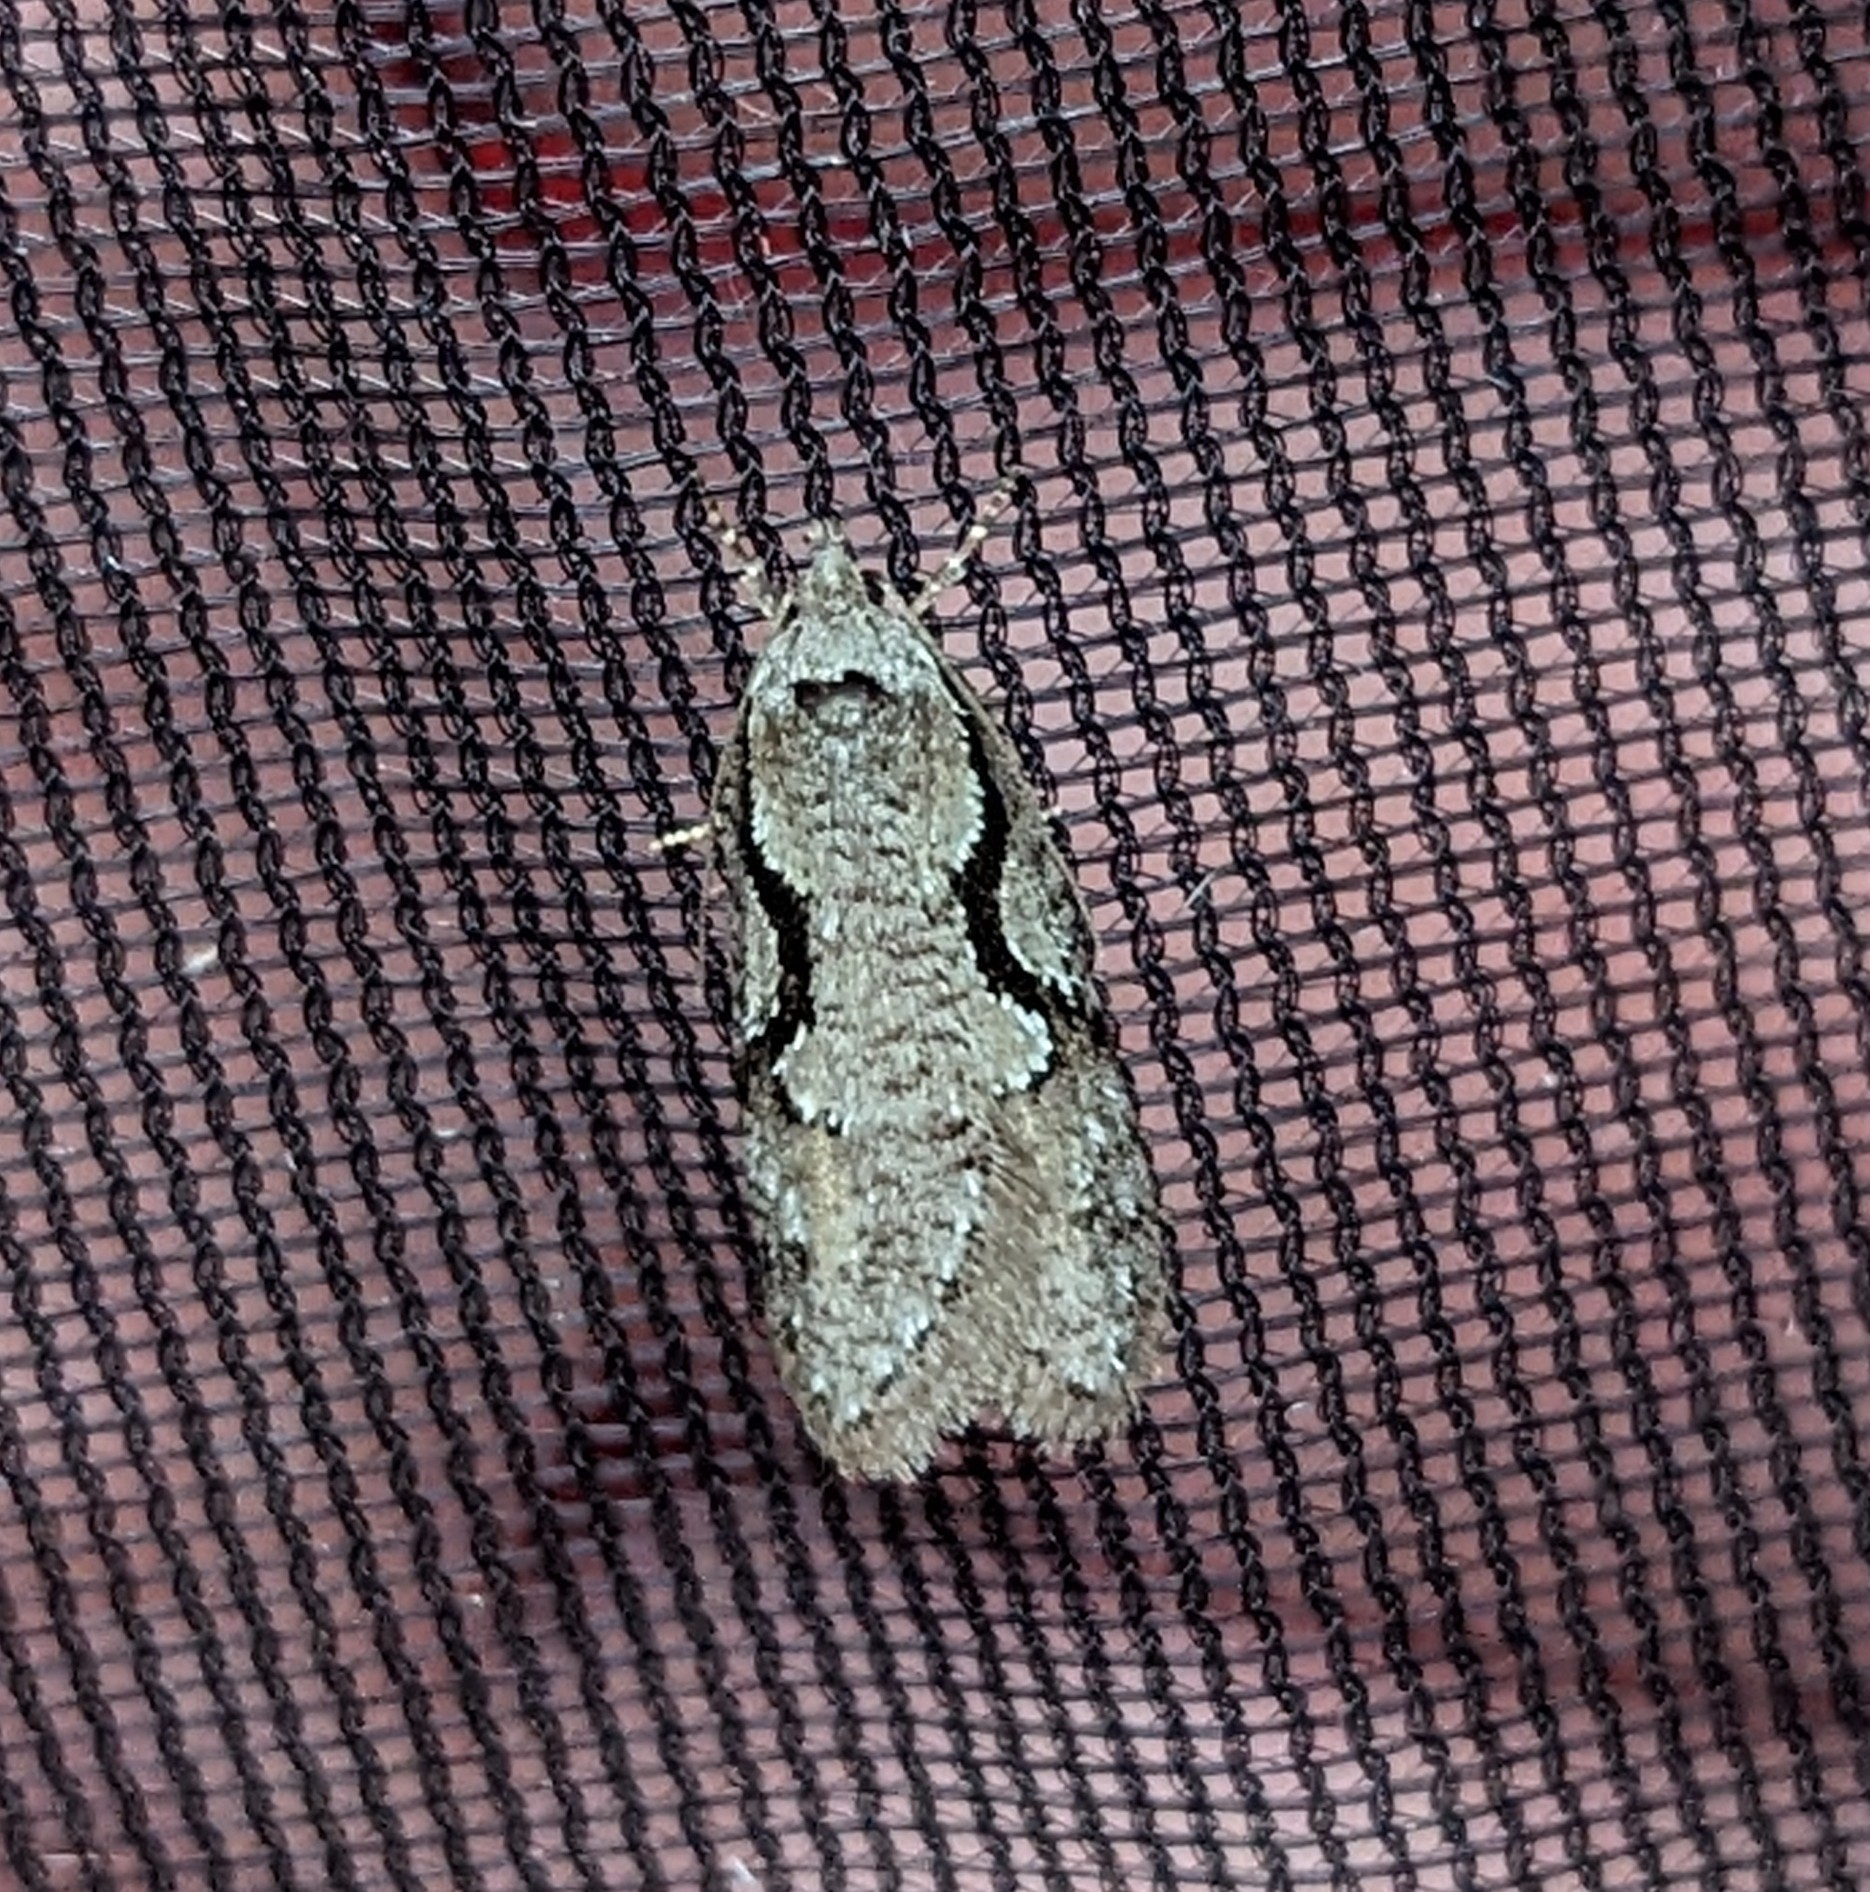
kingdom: Animalia
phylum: Arthropoda
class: Insecta
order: Lepidoptera
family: Depressariidae
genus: Semioscopis
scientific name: Semioscopis packardella
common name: Packard's concealer moth
